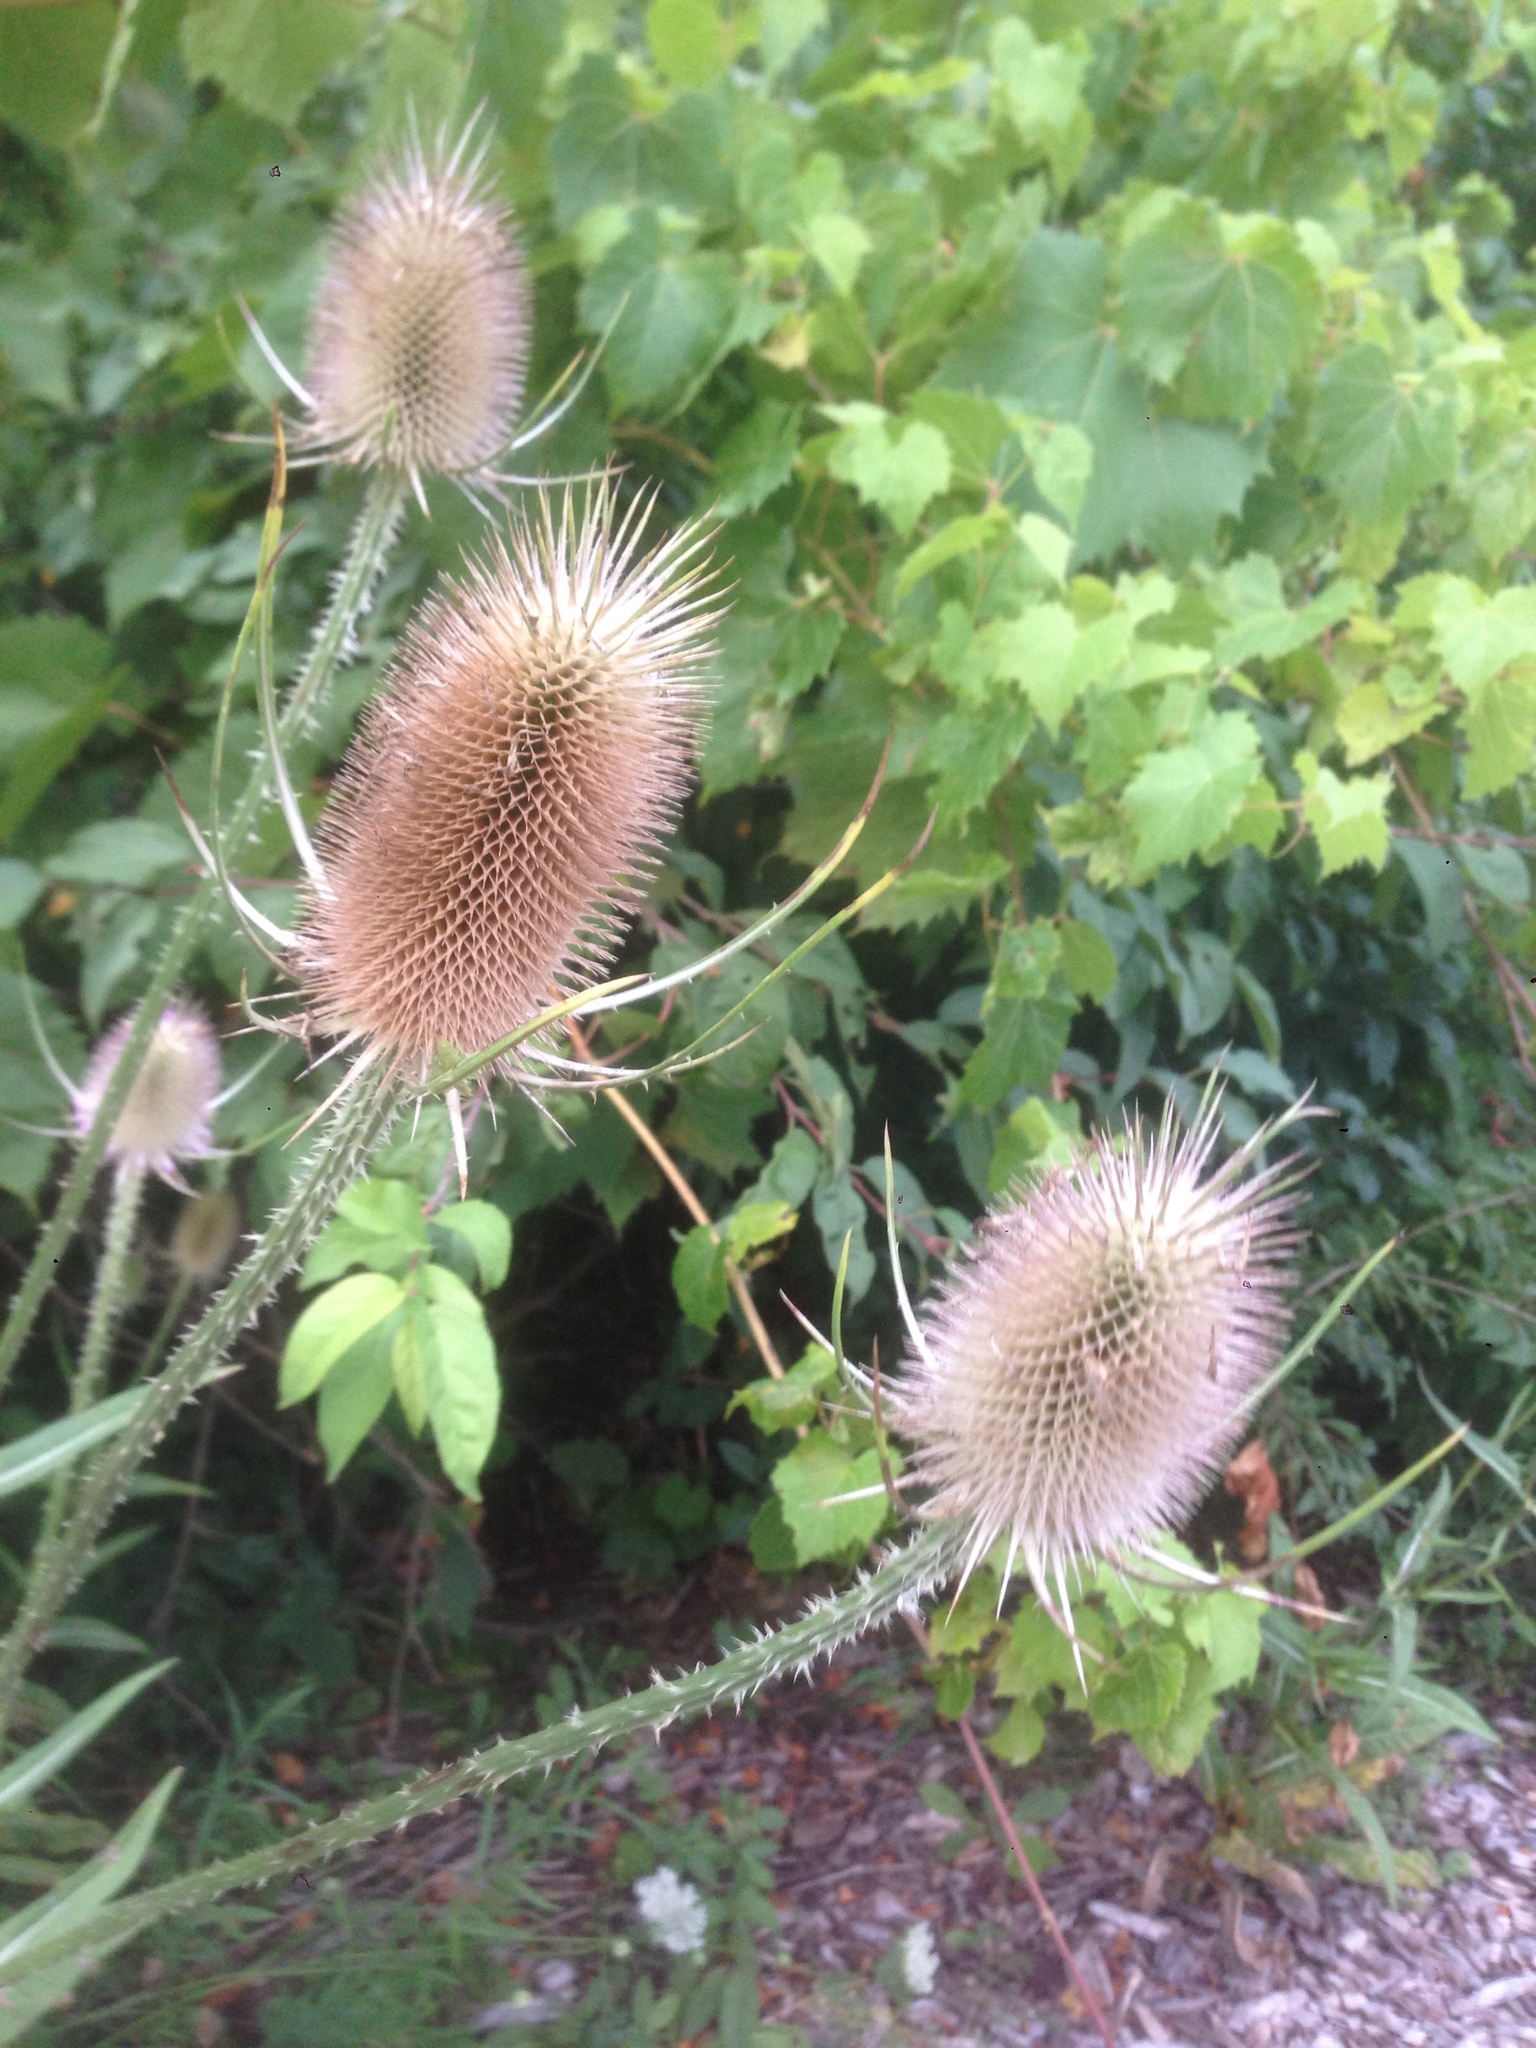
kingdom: Plantae
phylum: Tracheophyta
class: Magnoliopsida
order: Dipsacales
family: Caprifoliaceae
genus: Dipsacus
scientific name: Dipsacus fullonum
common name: Teasel
